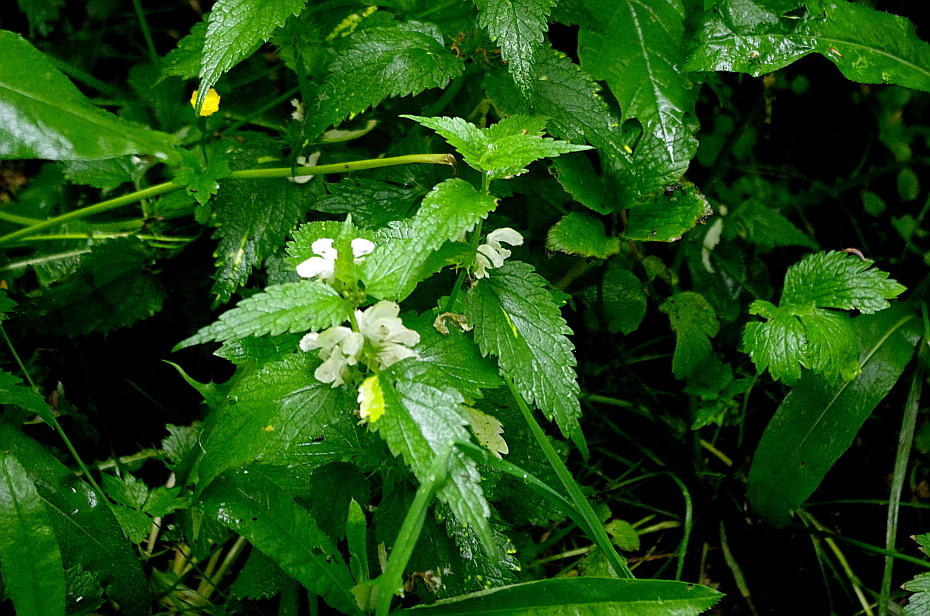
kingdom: Plantae
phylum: Tracheophyta
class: Magnoliopsida
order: Lamiales
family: Lamiaceae
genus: Lamium
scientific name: Lamium album
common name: White dead-nettle
